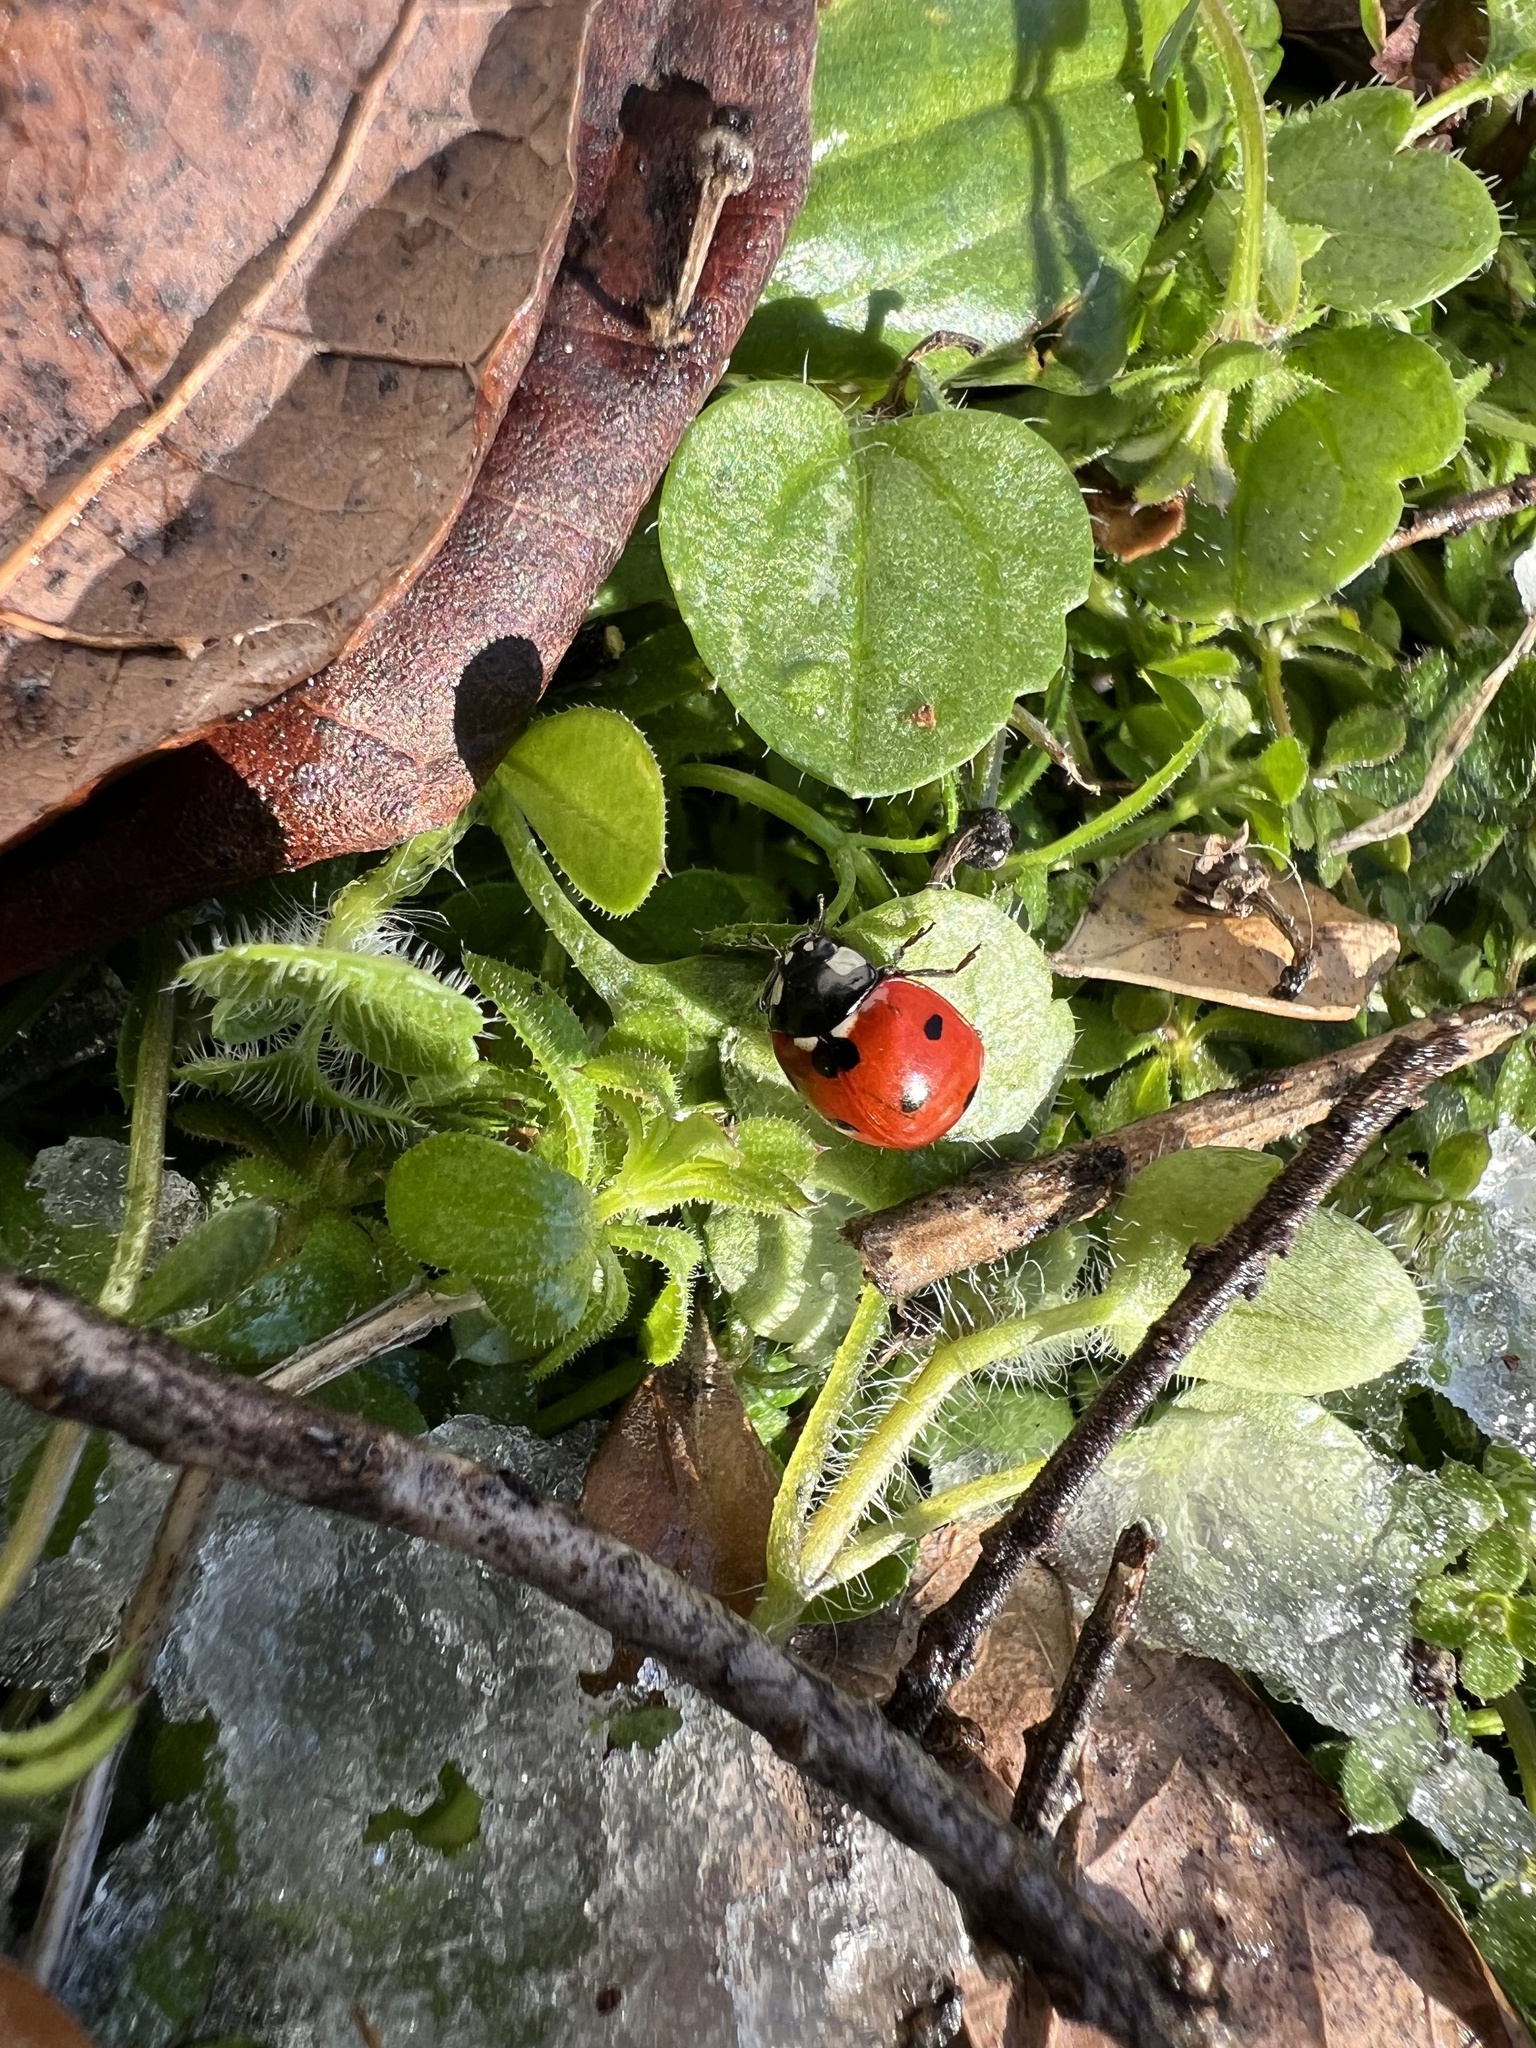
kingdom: Animalia
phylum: Arthropoda
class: Insecta
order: Coleoptera
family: Coccinellidae
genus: Coccinella
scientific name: Coccinella septempunctata
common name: Sevenspotted lady beetle
